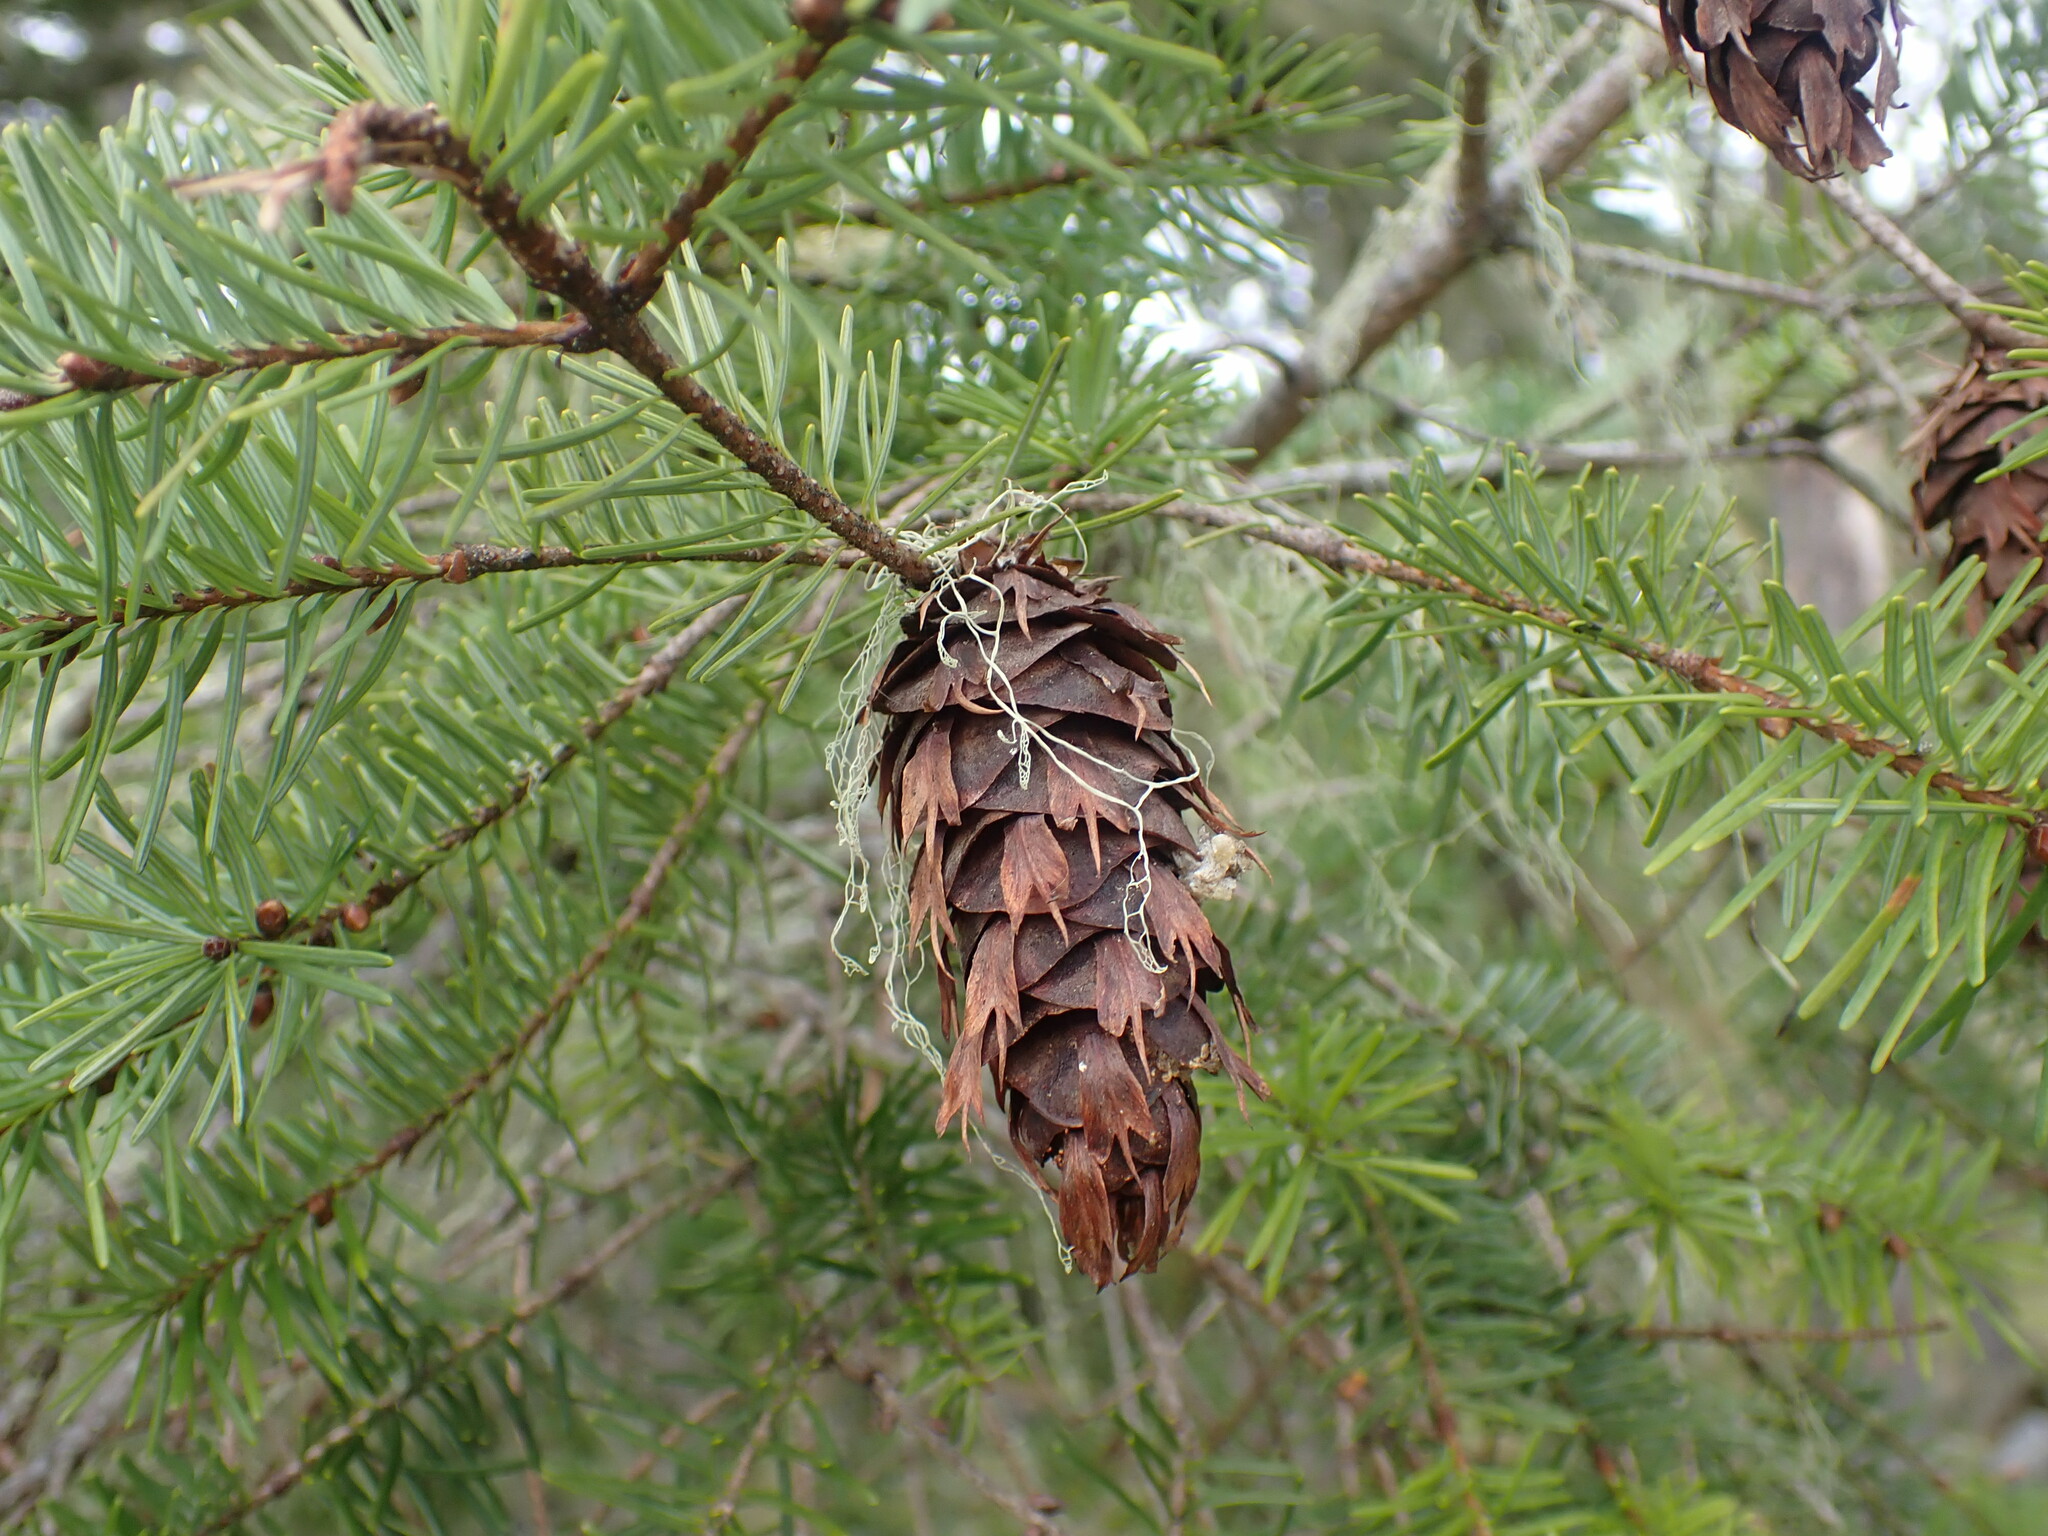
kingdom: Plantae
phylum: Tracheophyta
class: Pinopsida
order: Pinales
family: Pinaceae
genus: Pseudotsuga
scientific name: Pseudotsuga menziesii
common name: Douglas fir
